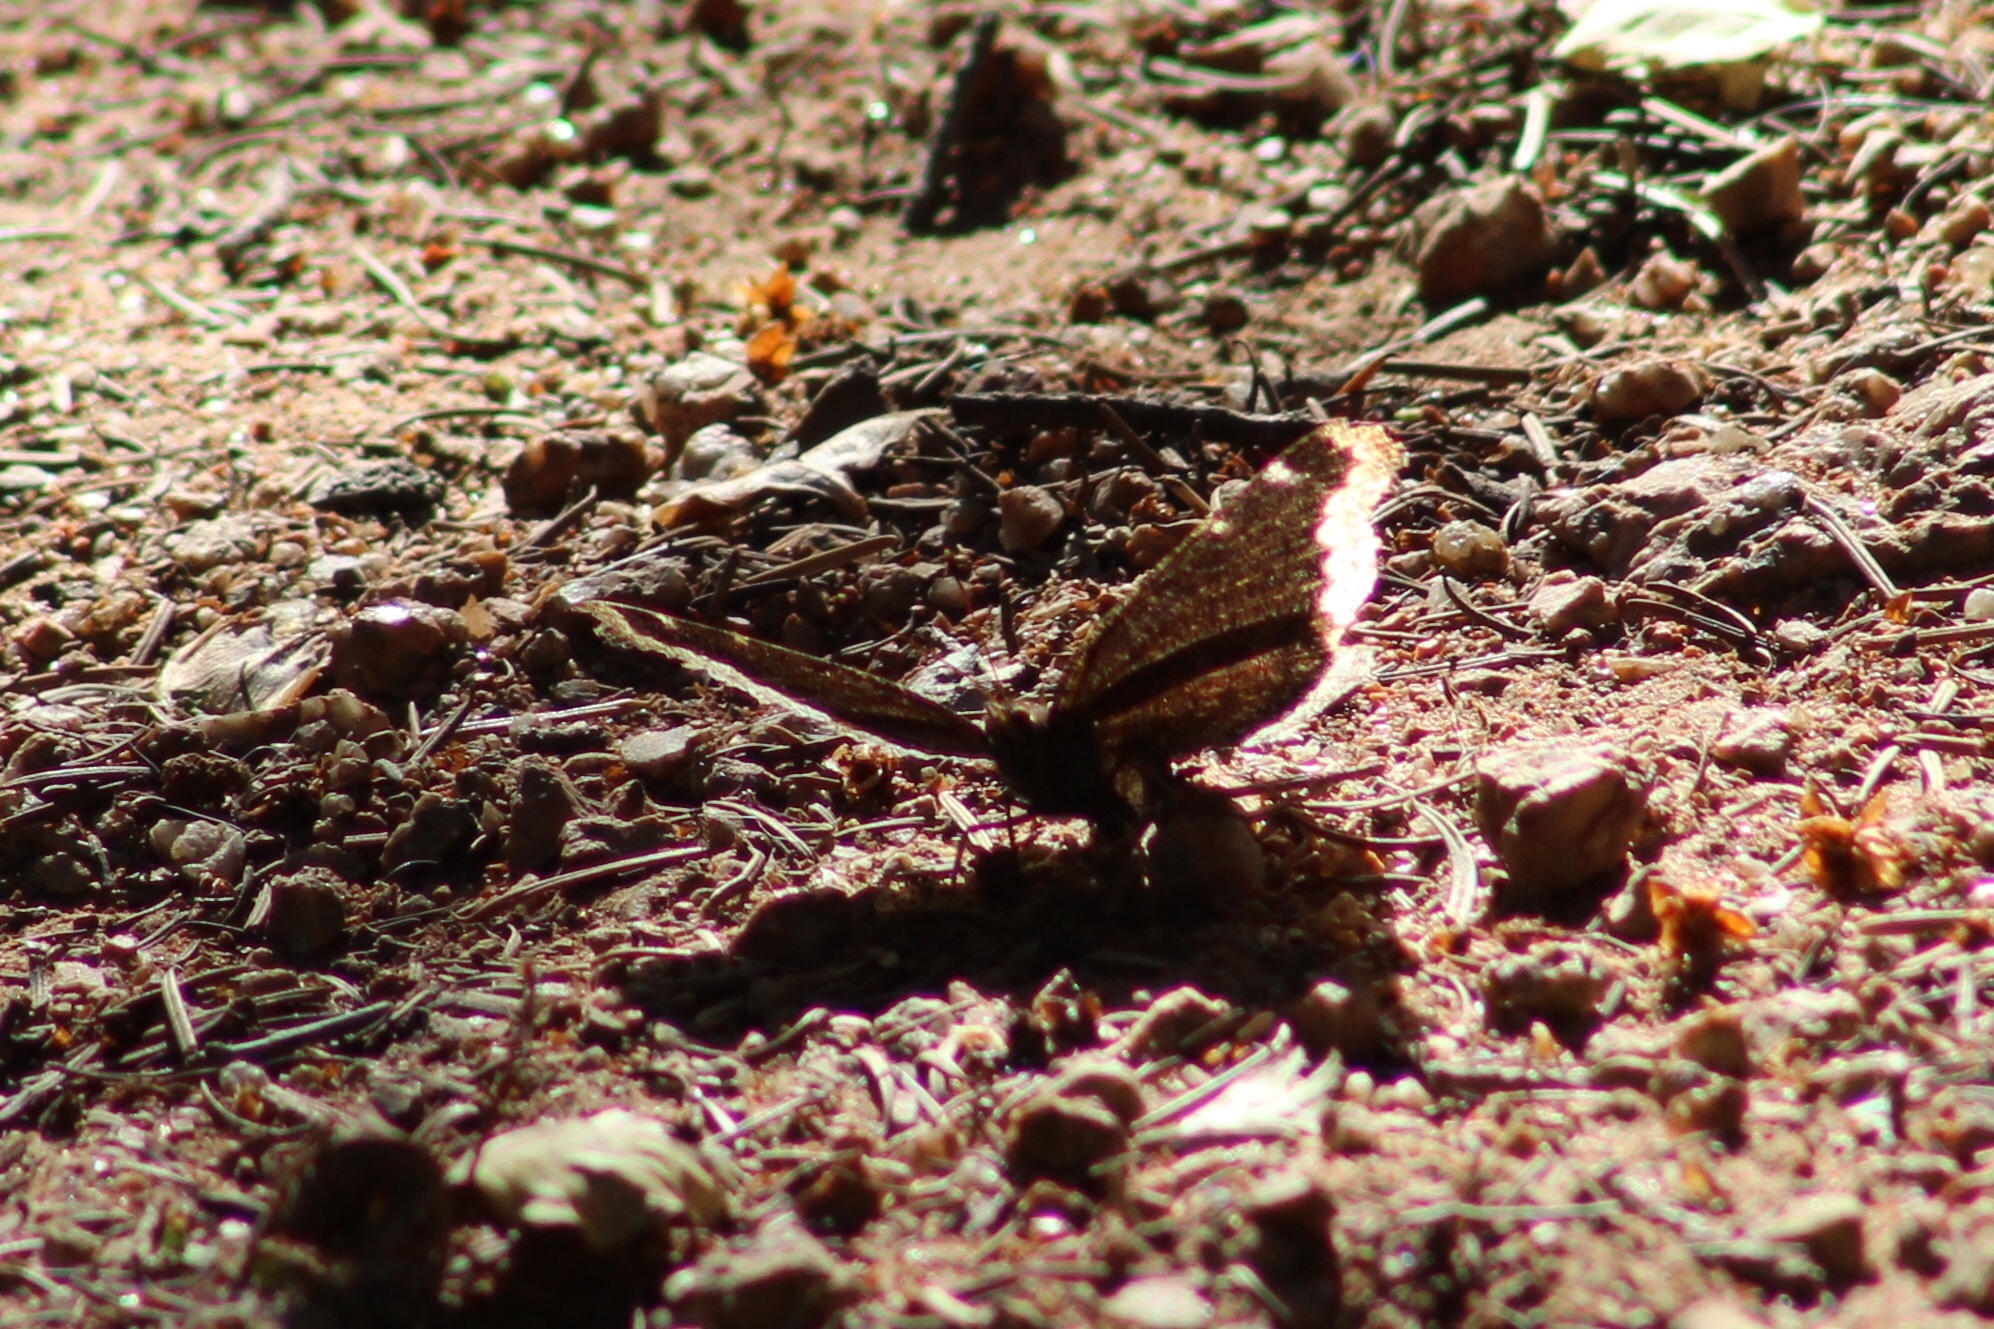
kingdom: Animalia
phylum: Arthropoda
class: Insecta
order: Lepidoptera
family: Nymphalidae
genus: Nymphalis
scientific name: Nymphalis antiopa
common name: Camberwell beauty
